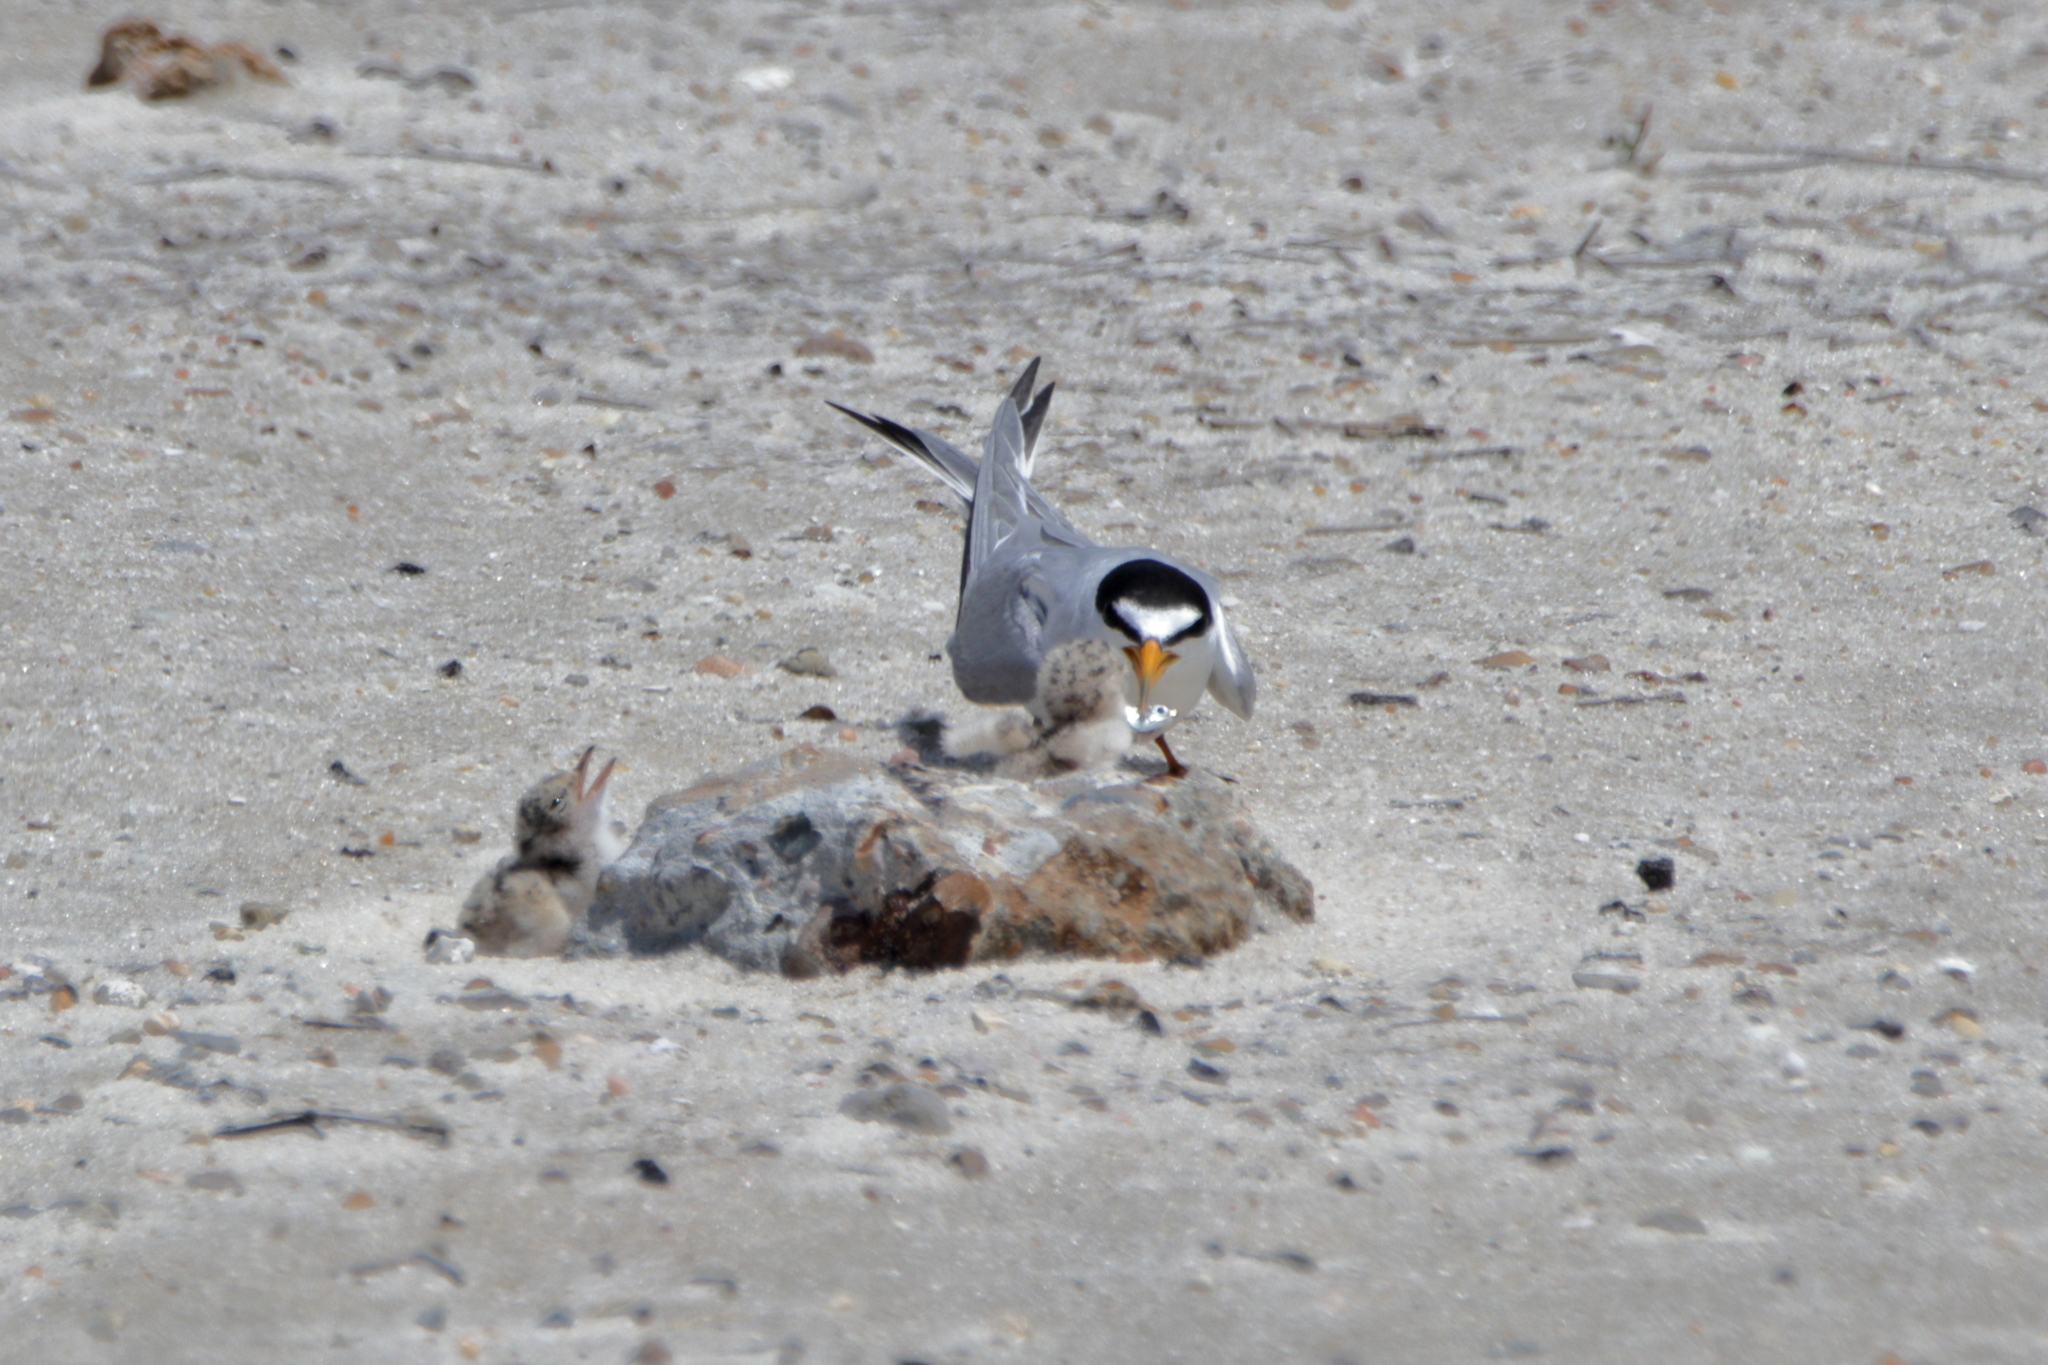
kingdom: Animalia
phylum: Chordata
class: Aves
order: Charadriiformes
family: Laridae
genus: Sternula
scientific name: Sternula antillarum
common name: Least tern
